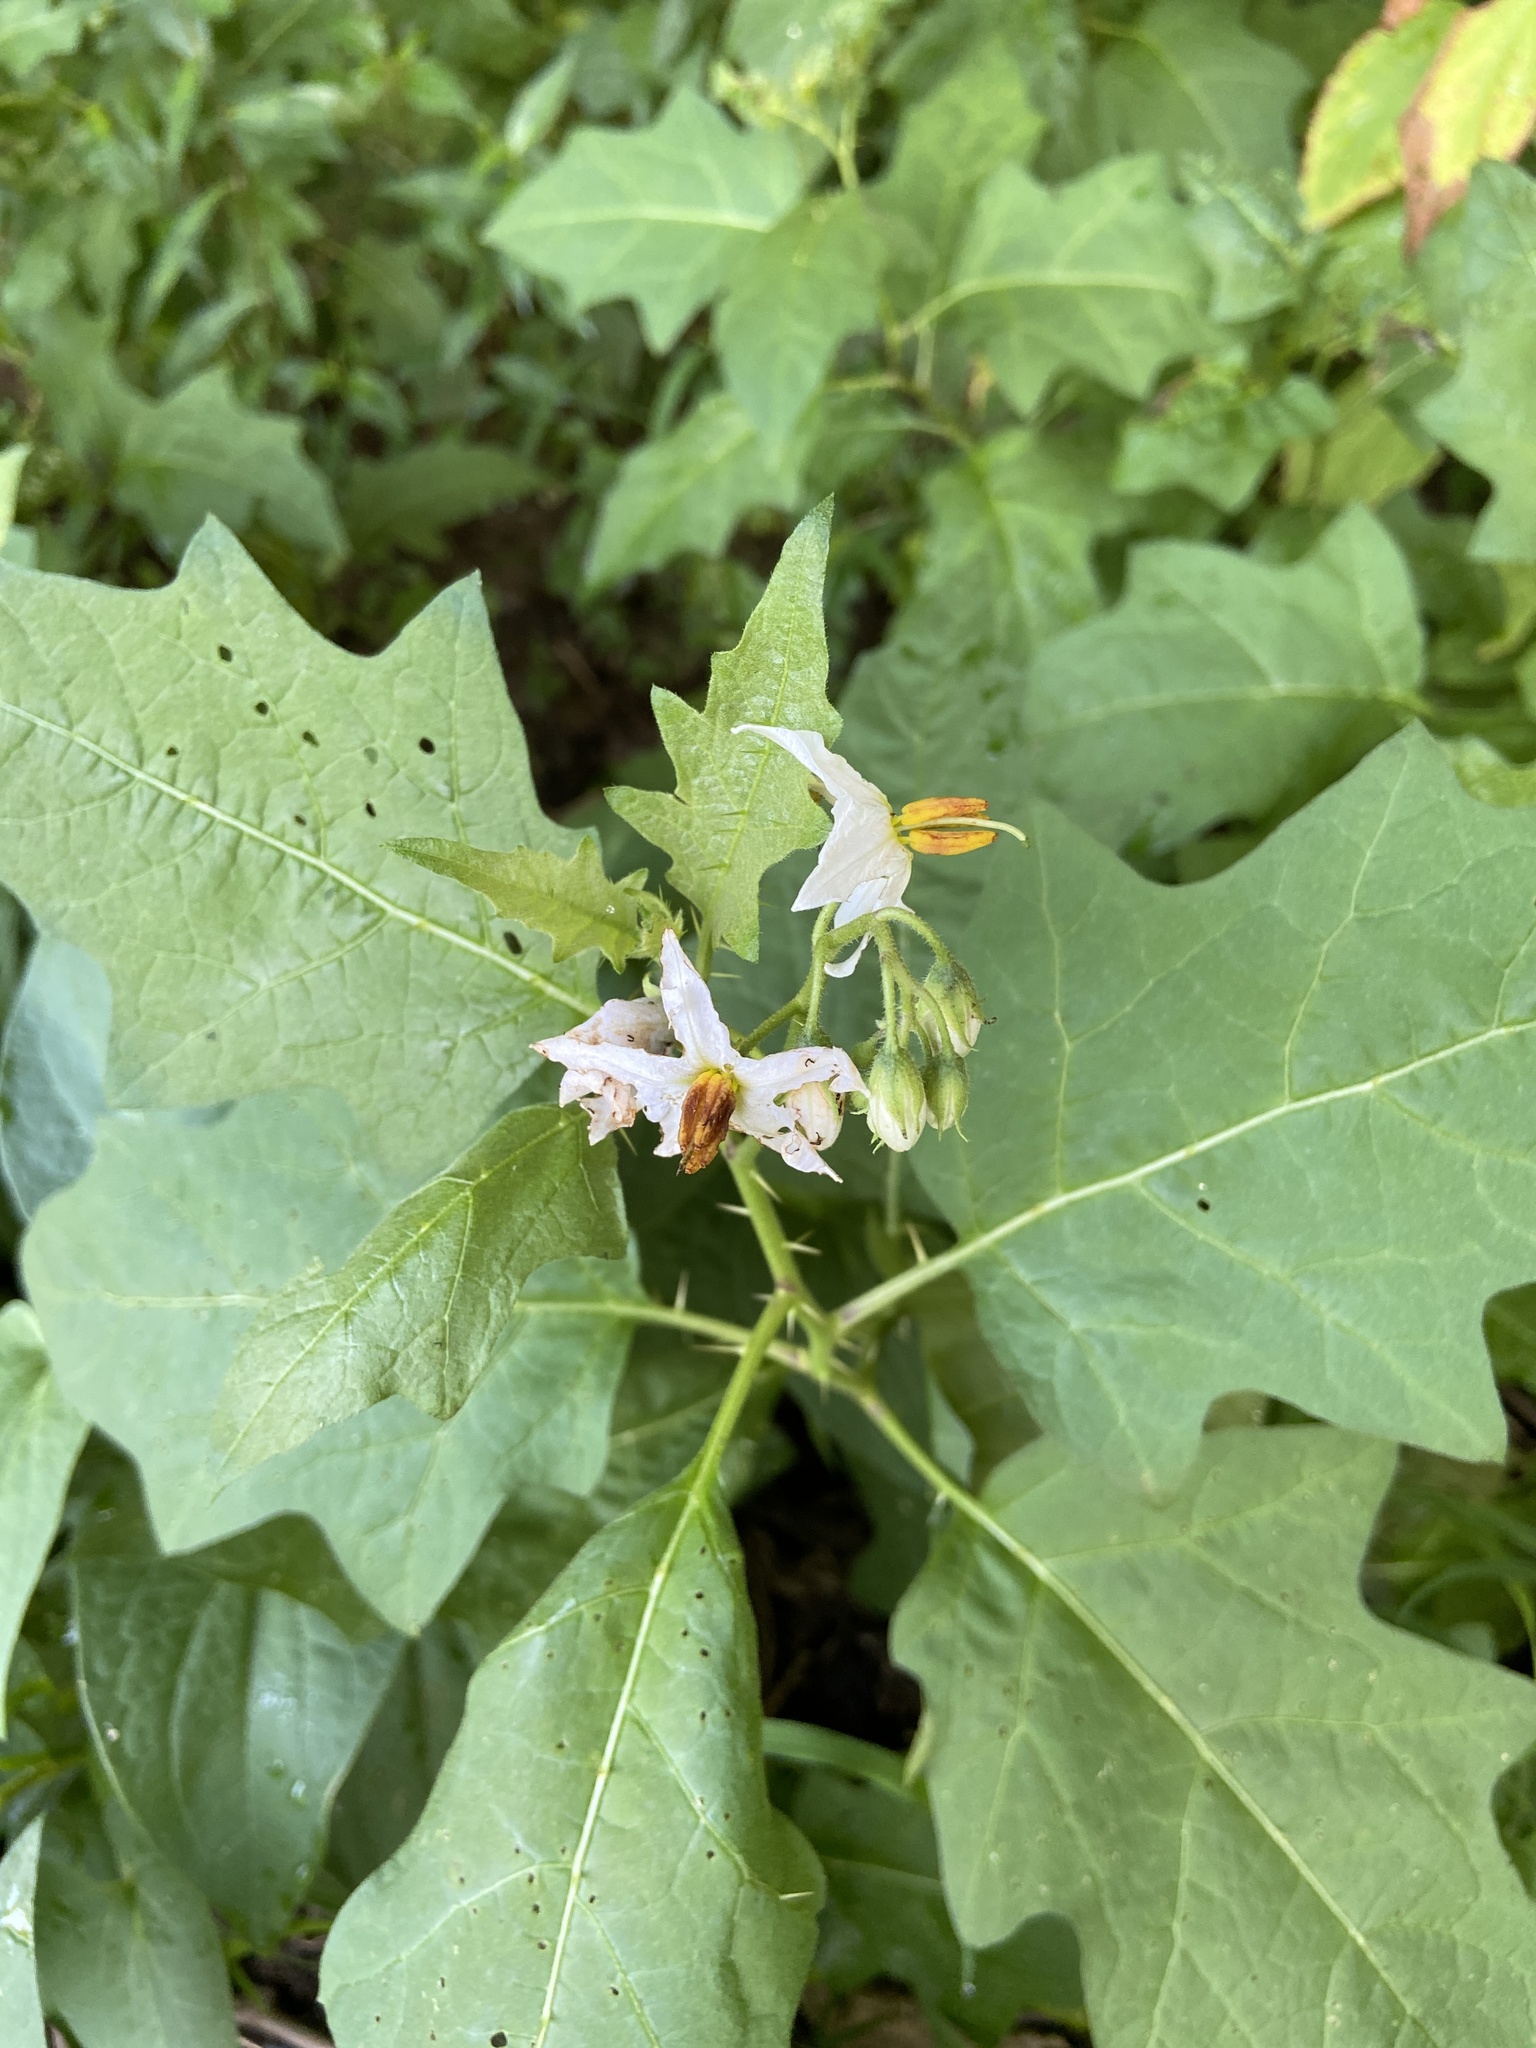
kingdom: Plantae
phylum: Tracheophyta
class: Magnoliopsida
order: Solanales
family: Solanaceae
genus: Solanum
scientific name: Solanum carolinense
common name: Horse-nettle
